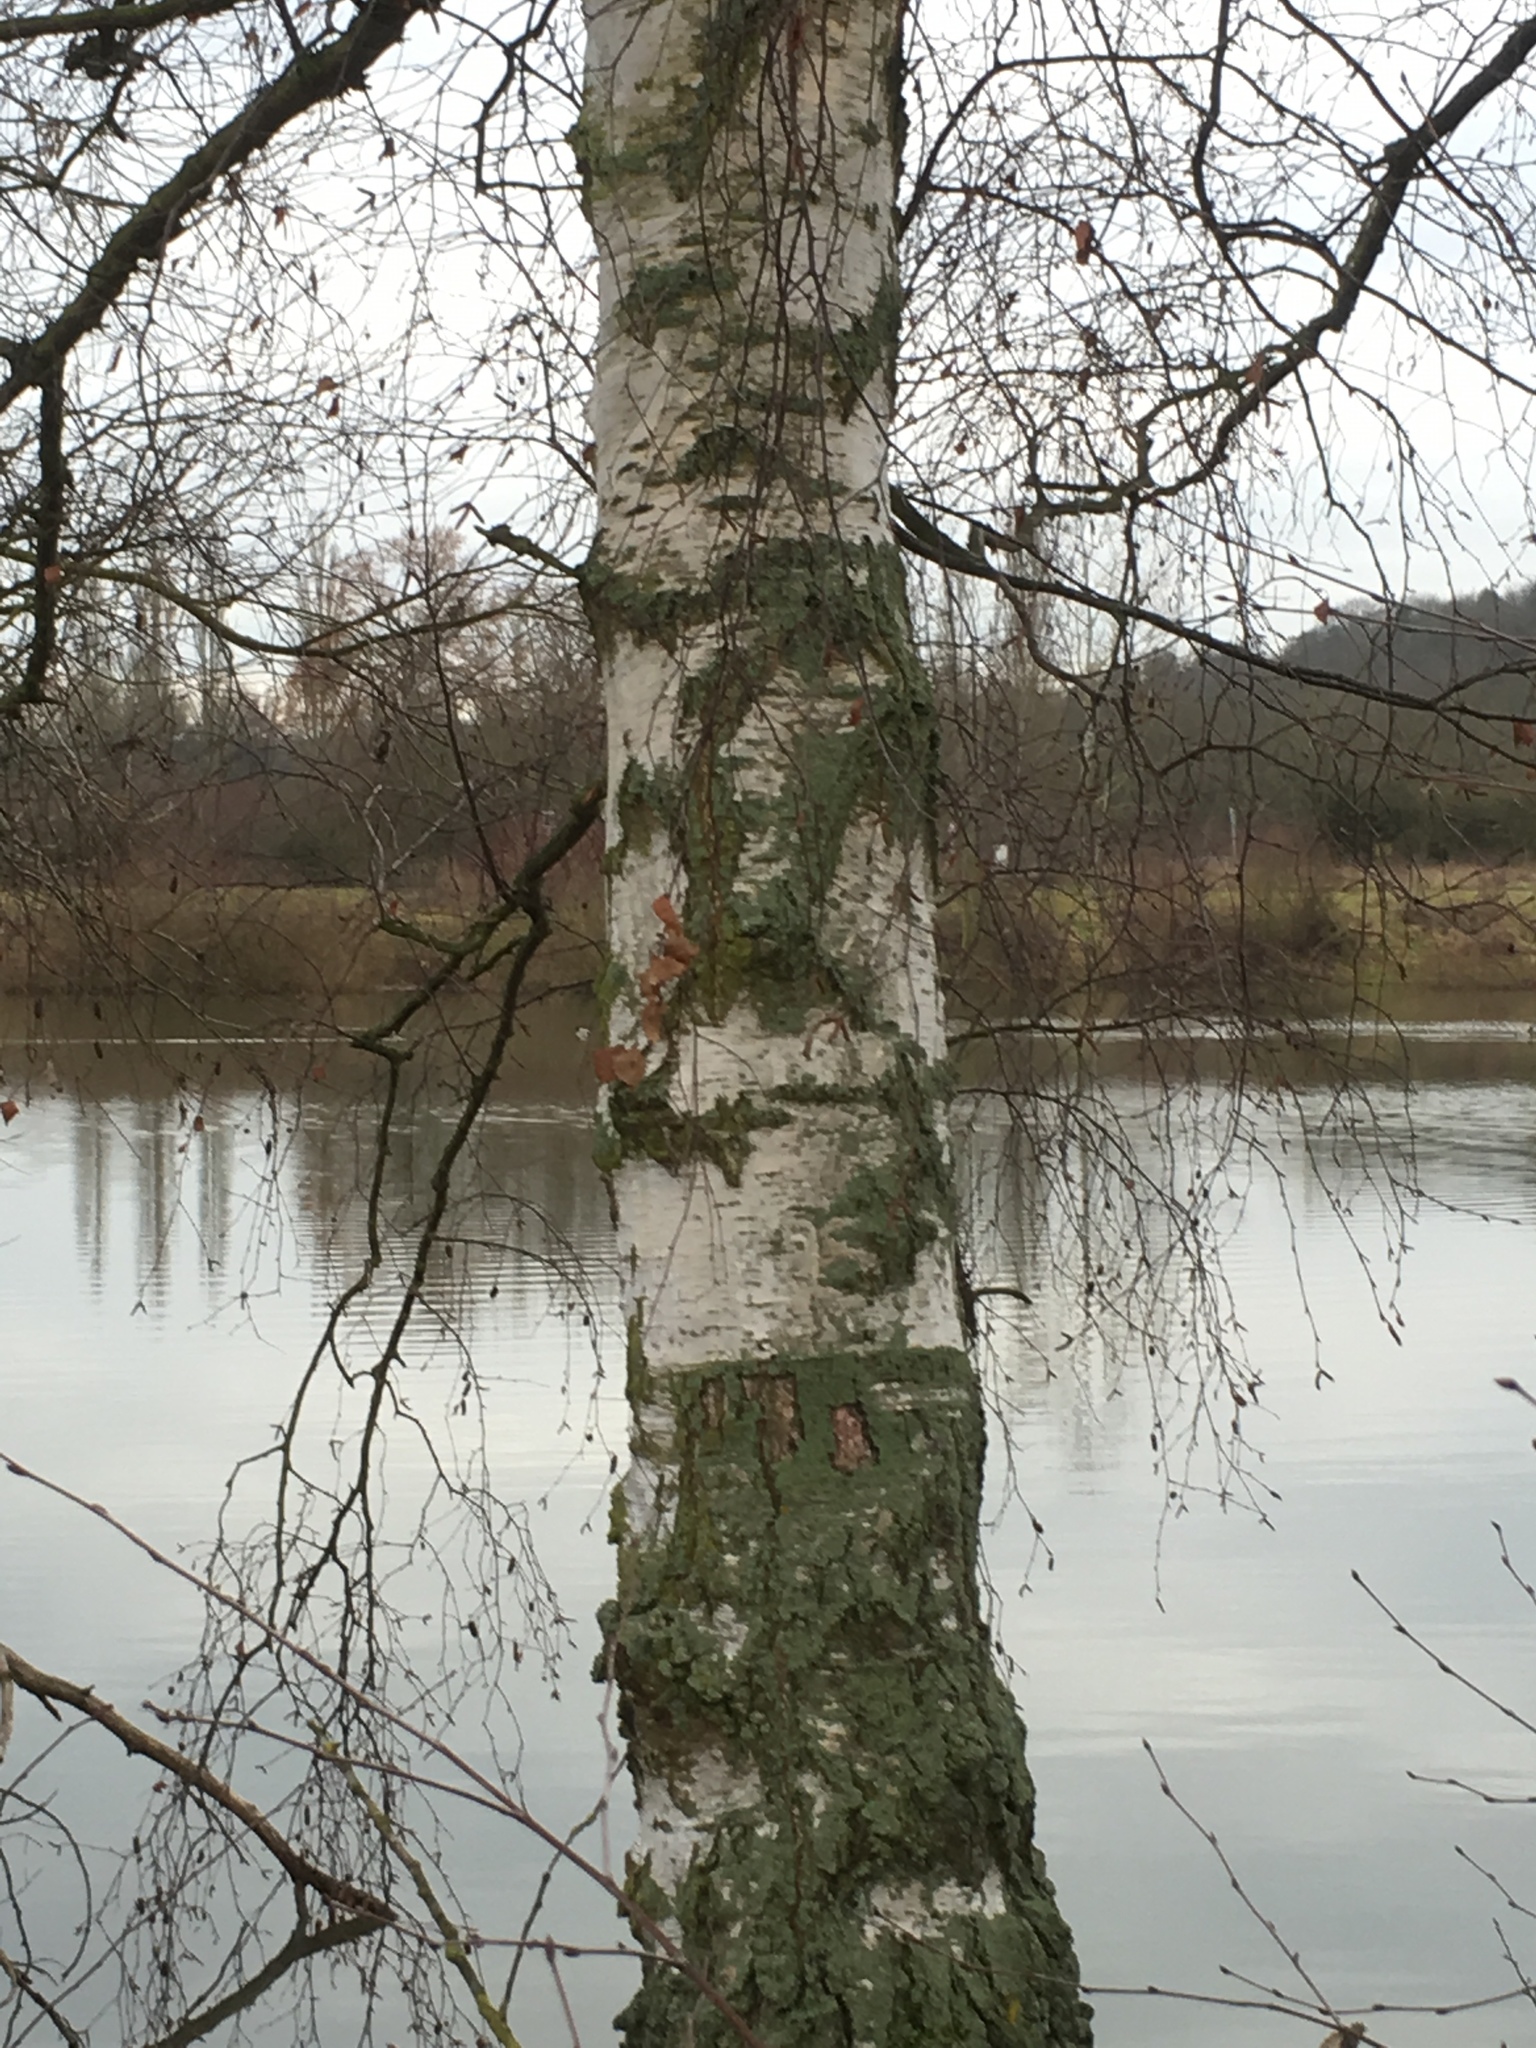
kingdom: Plantae
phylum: Tracheophyta
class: Magnoliopsida
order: Fagales
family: Betulaceae
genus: Betula
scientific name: Betula pendula
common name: Silver birch
